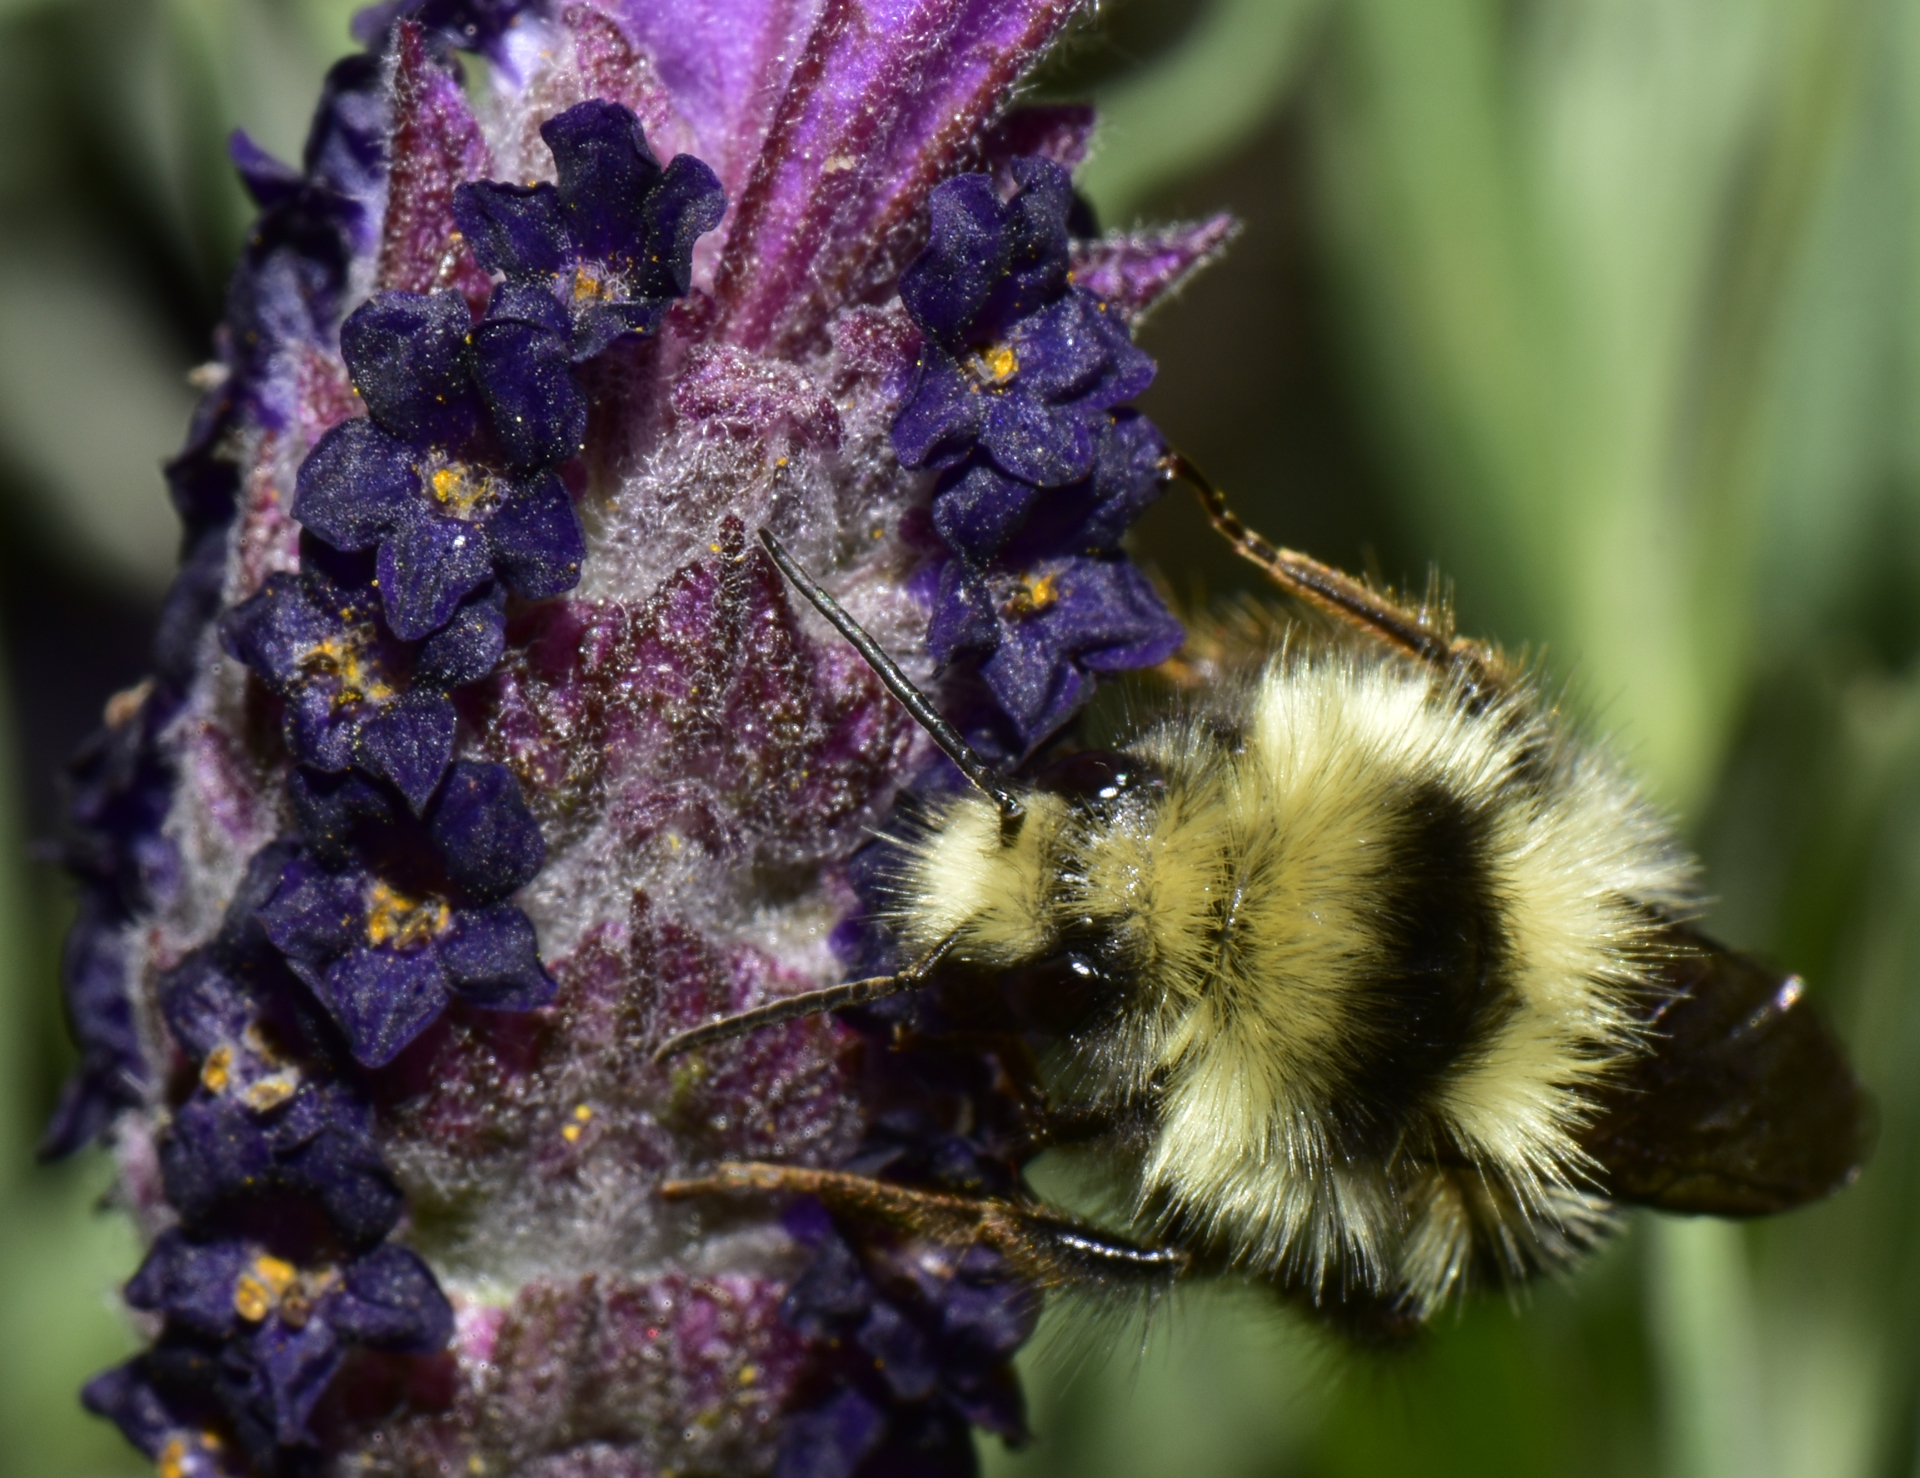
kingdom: Animalia
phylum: Arthropoda
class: Insecta
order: Hymenoptera
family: Apidae
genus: Bombus
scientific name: Bombus melanopygus
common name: Black tail bumble bee
